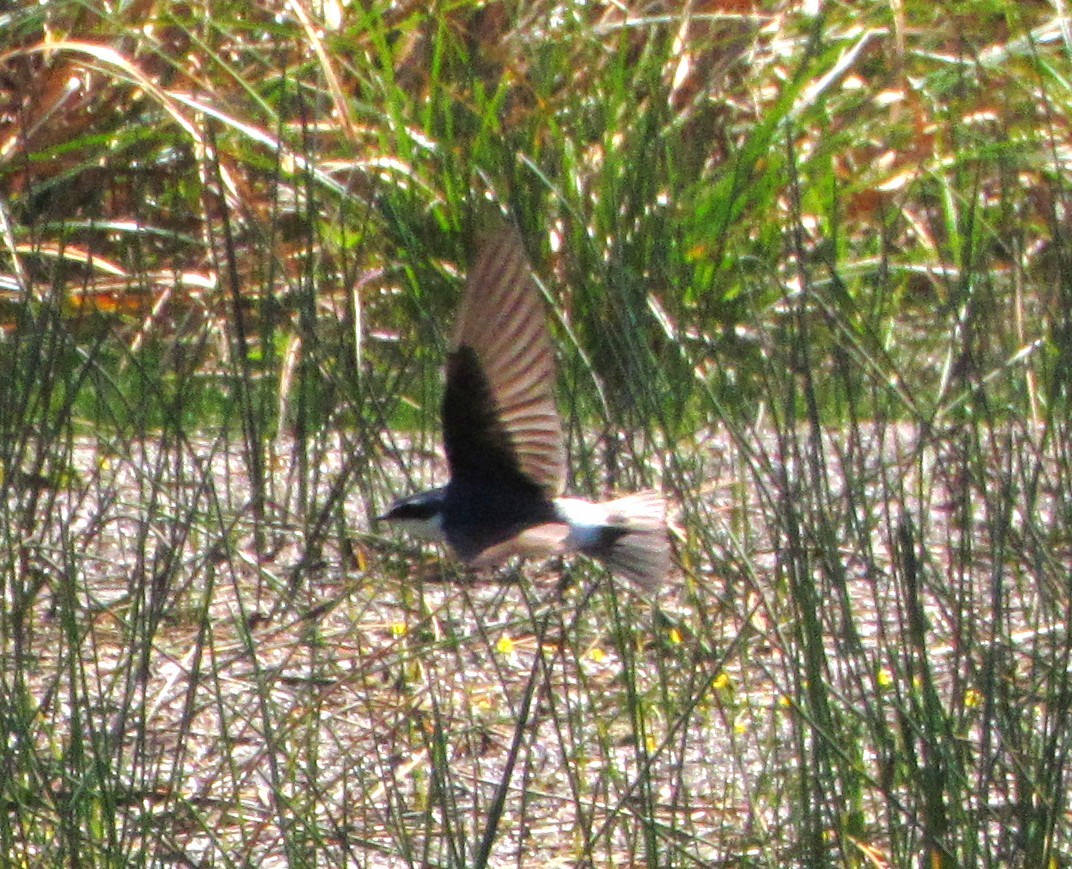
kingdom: Animalia
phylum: Chordata
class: Aves
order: Passeriformes
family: Hirundinidae
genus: Tachycineta
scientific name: Tachycineta leucorrhoa
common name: White-rumped swallow
